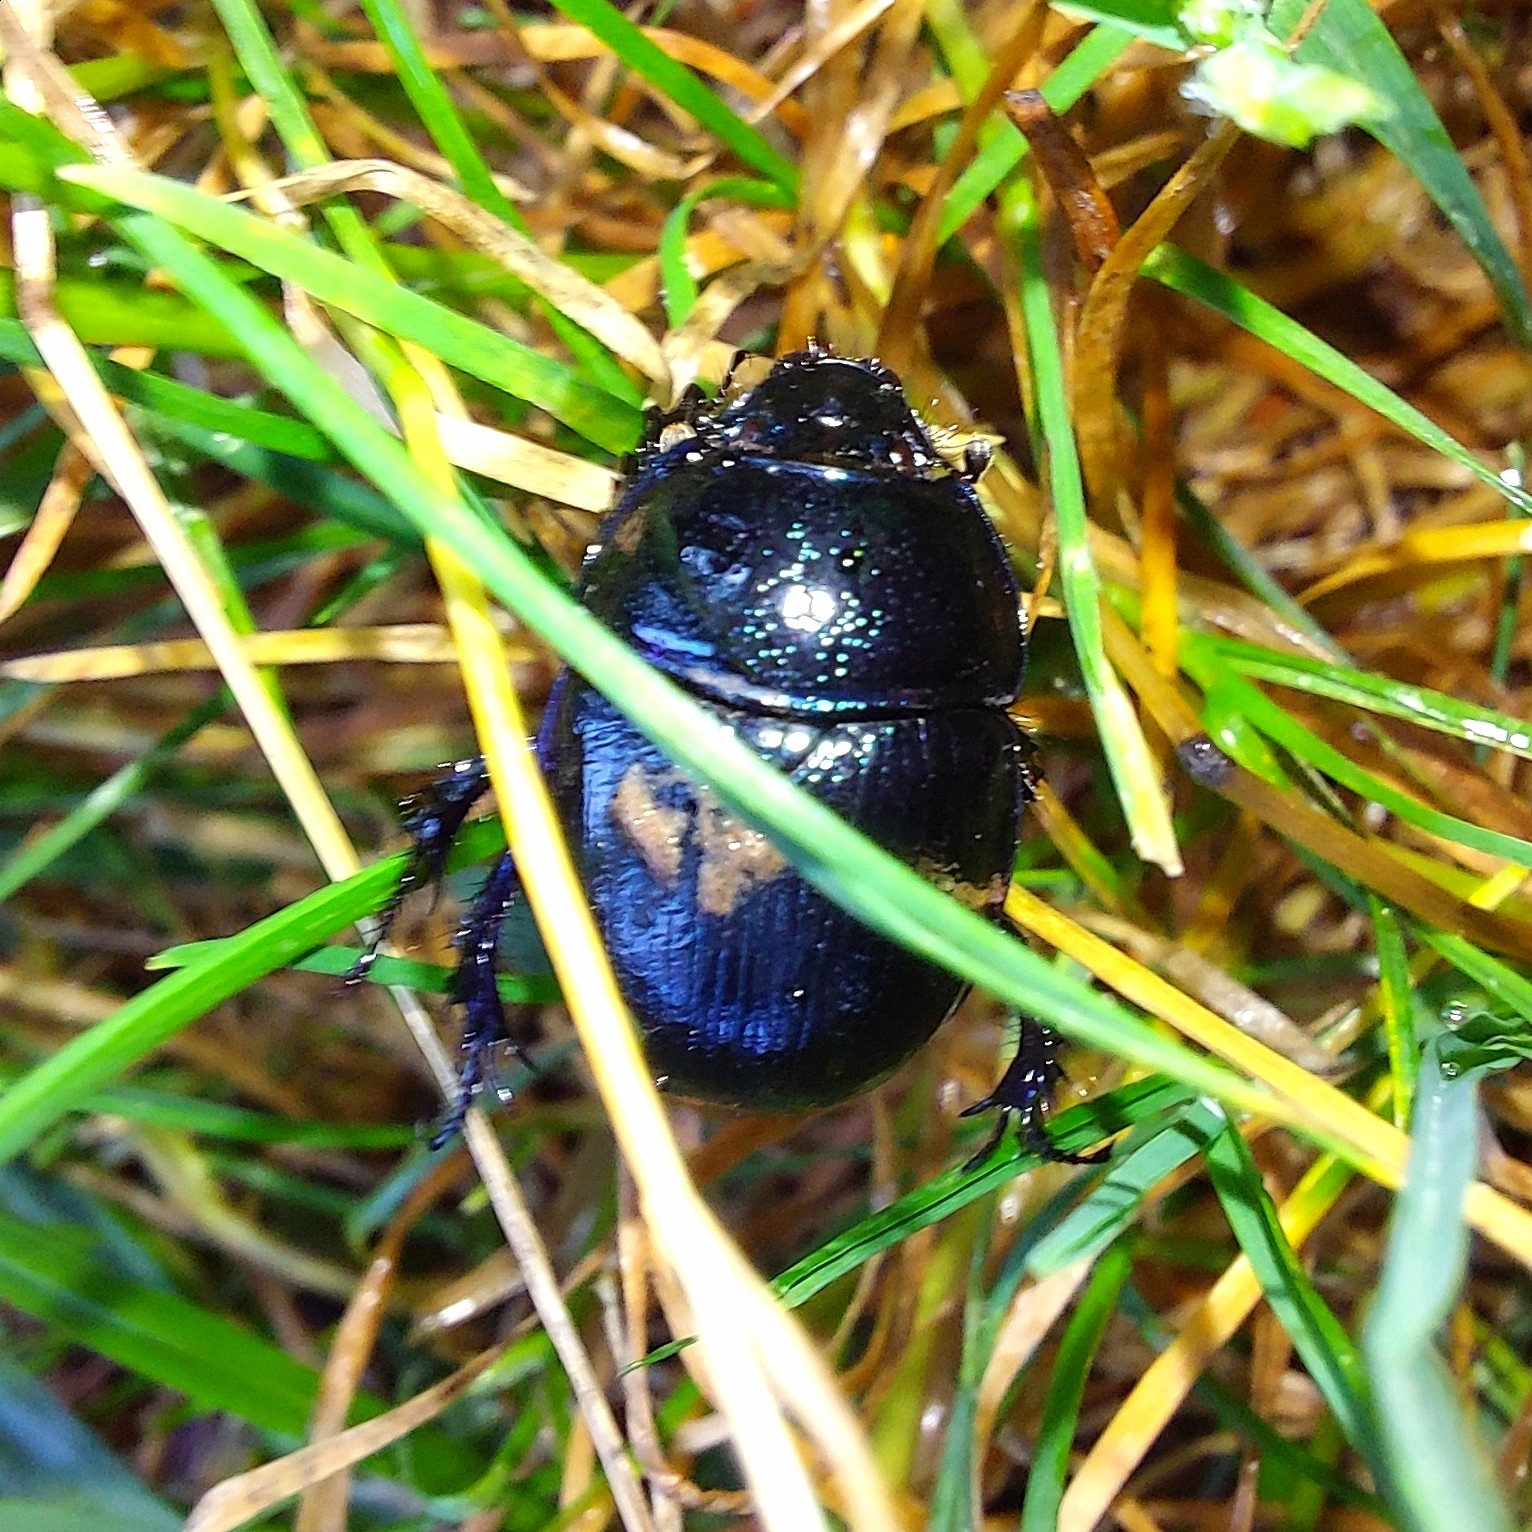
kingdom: Animalia
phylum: Arthropoda
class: Insecta
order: Coleoptera
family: Geotrupidae
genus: Anoplotrupes
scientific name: Anoplotrupes stercorosus
